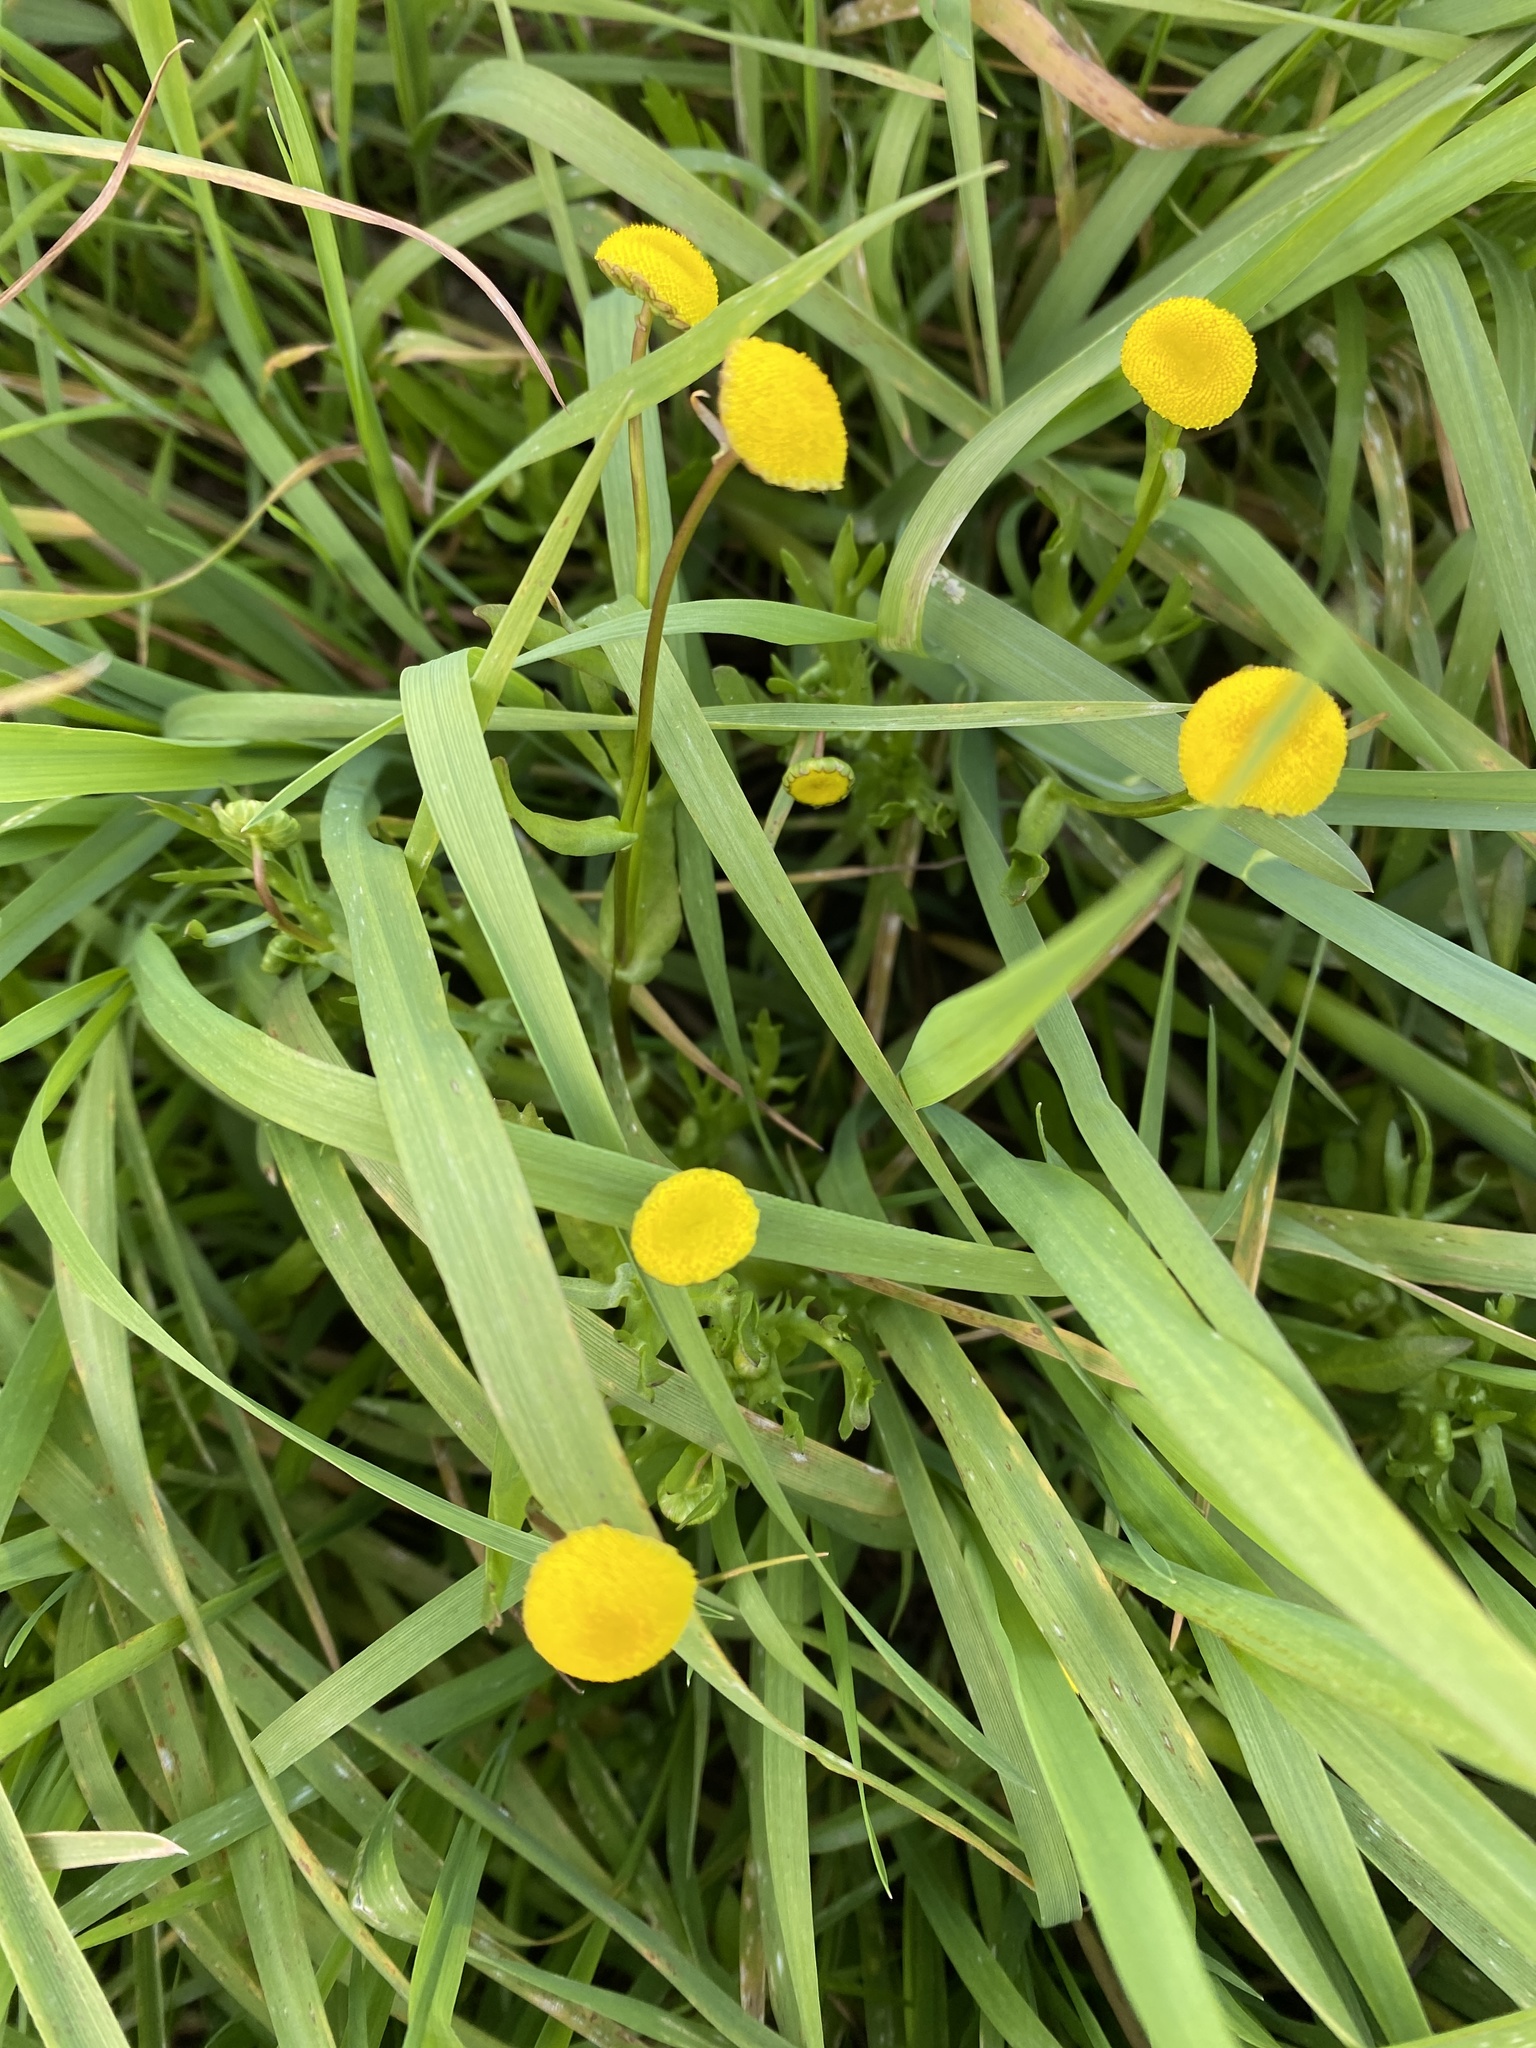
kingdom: Plantae
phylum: Tracheophyta
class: Magnoliopsida
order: Asterales
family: Asteraceae
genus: Cotula
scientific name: Cotula coronopifolia
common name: Buttonweed
